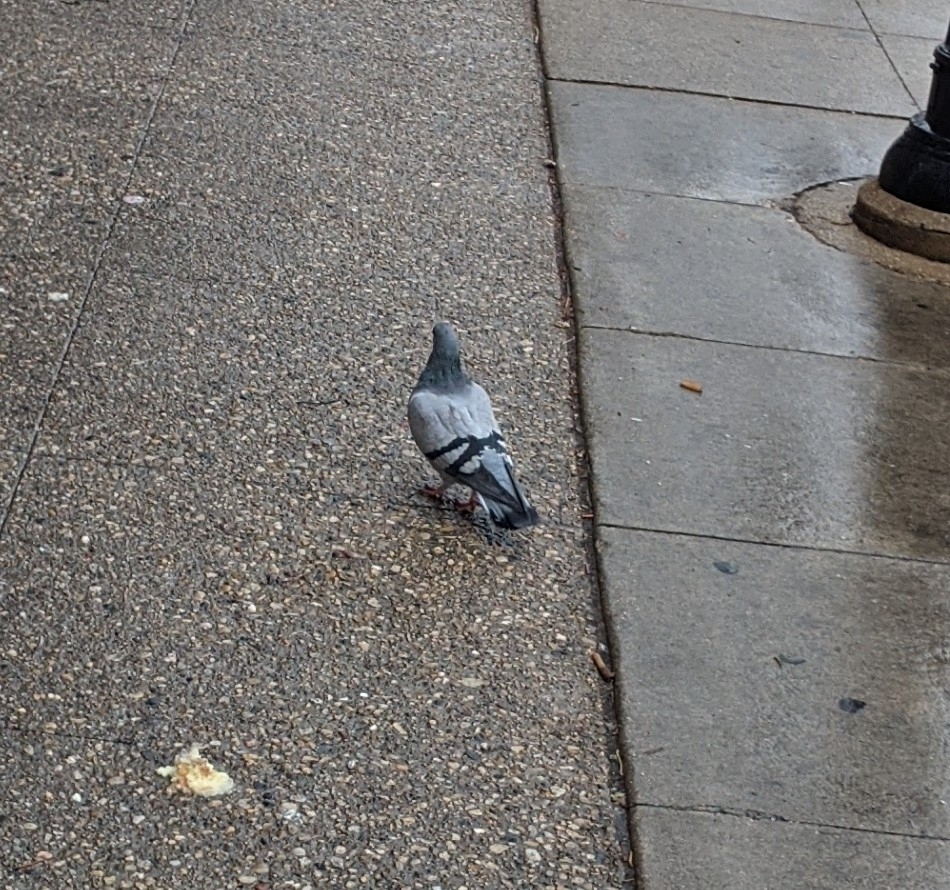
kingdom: Animalia
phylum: Chordata
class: Aves
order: Columbiformes
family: Columbidae
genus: Columba
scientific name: Columba livia
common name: Rock pigeon
